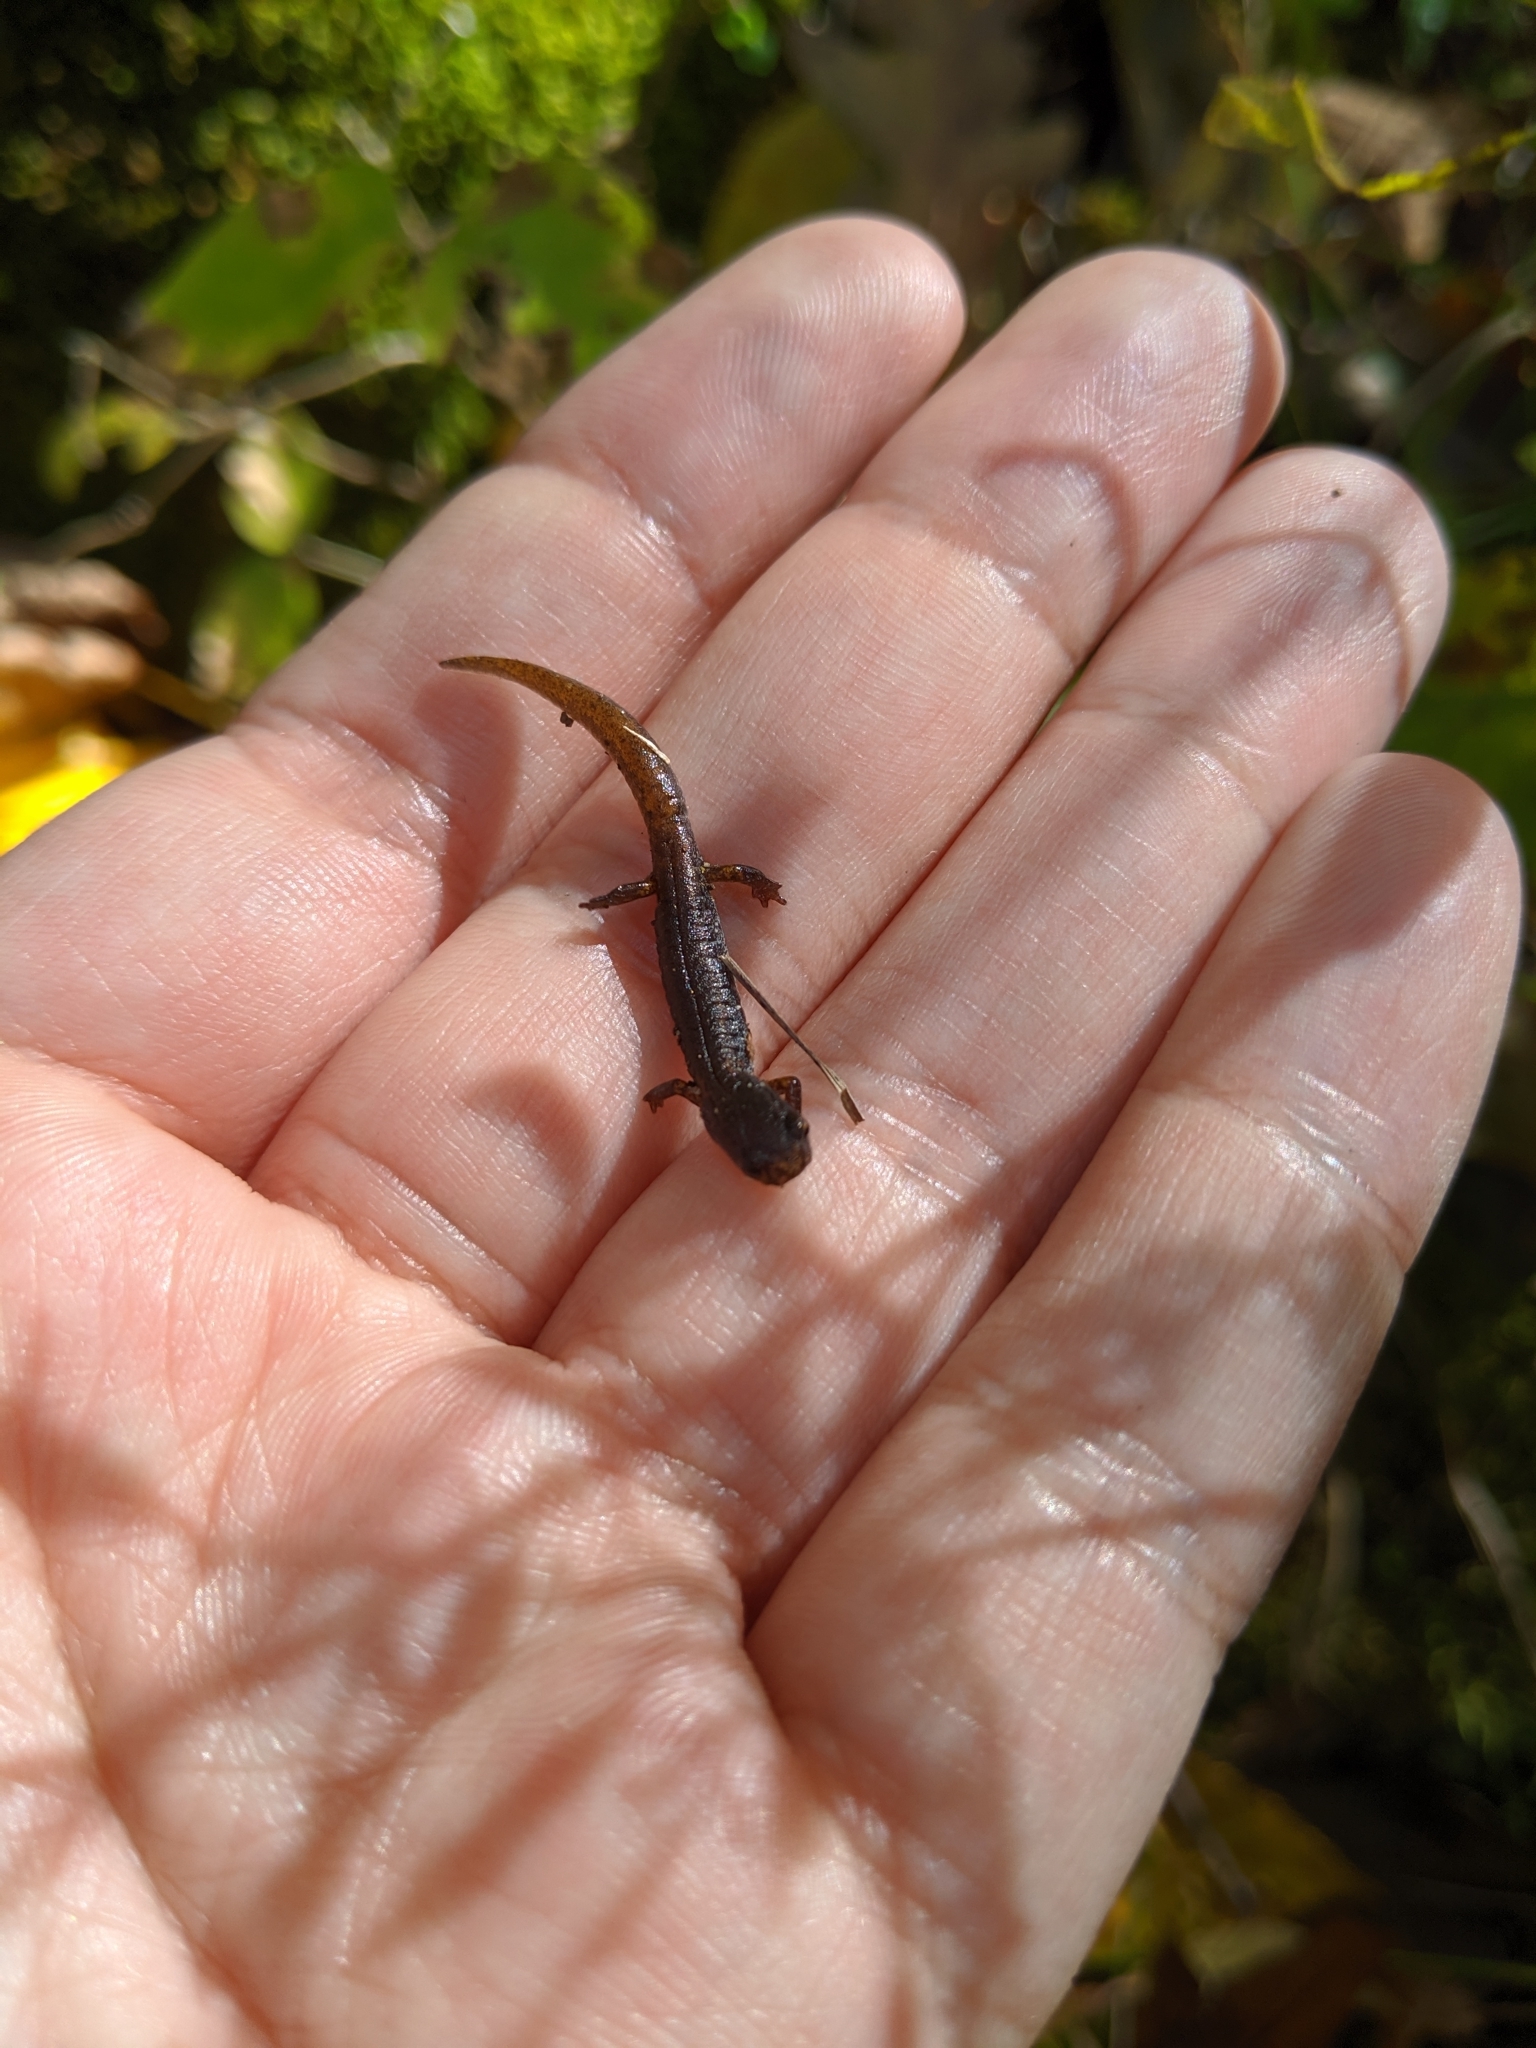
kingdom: Animalia
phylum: Chordata
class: Amphibia
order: Caudata
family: Plethodontidae
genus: Hemidactylium
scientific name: Hemidactylium scutatum
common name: Four-toed salamander
